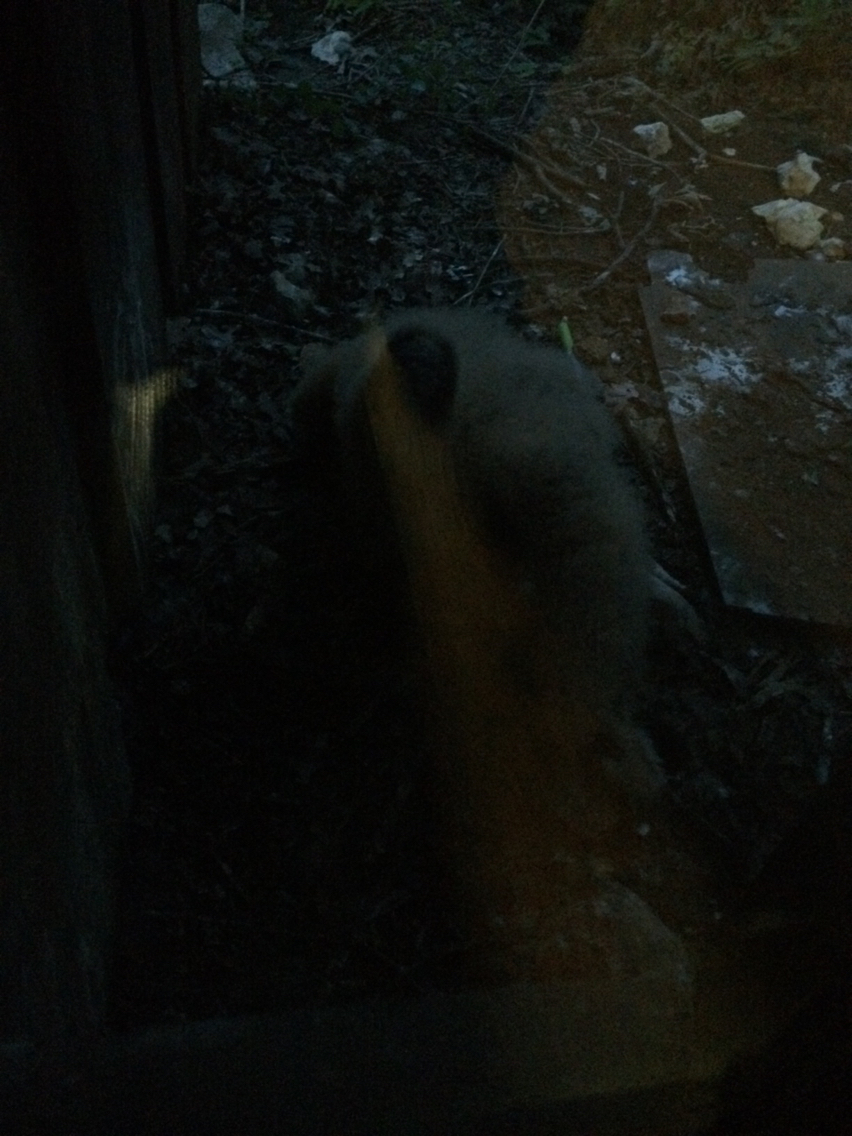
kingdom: Animalia
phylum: Chordata
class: Aves
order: Accipitriformes
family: Cathartidae
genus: Coragyps
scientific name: Coragyps atratus
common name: Black vulture
